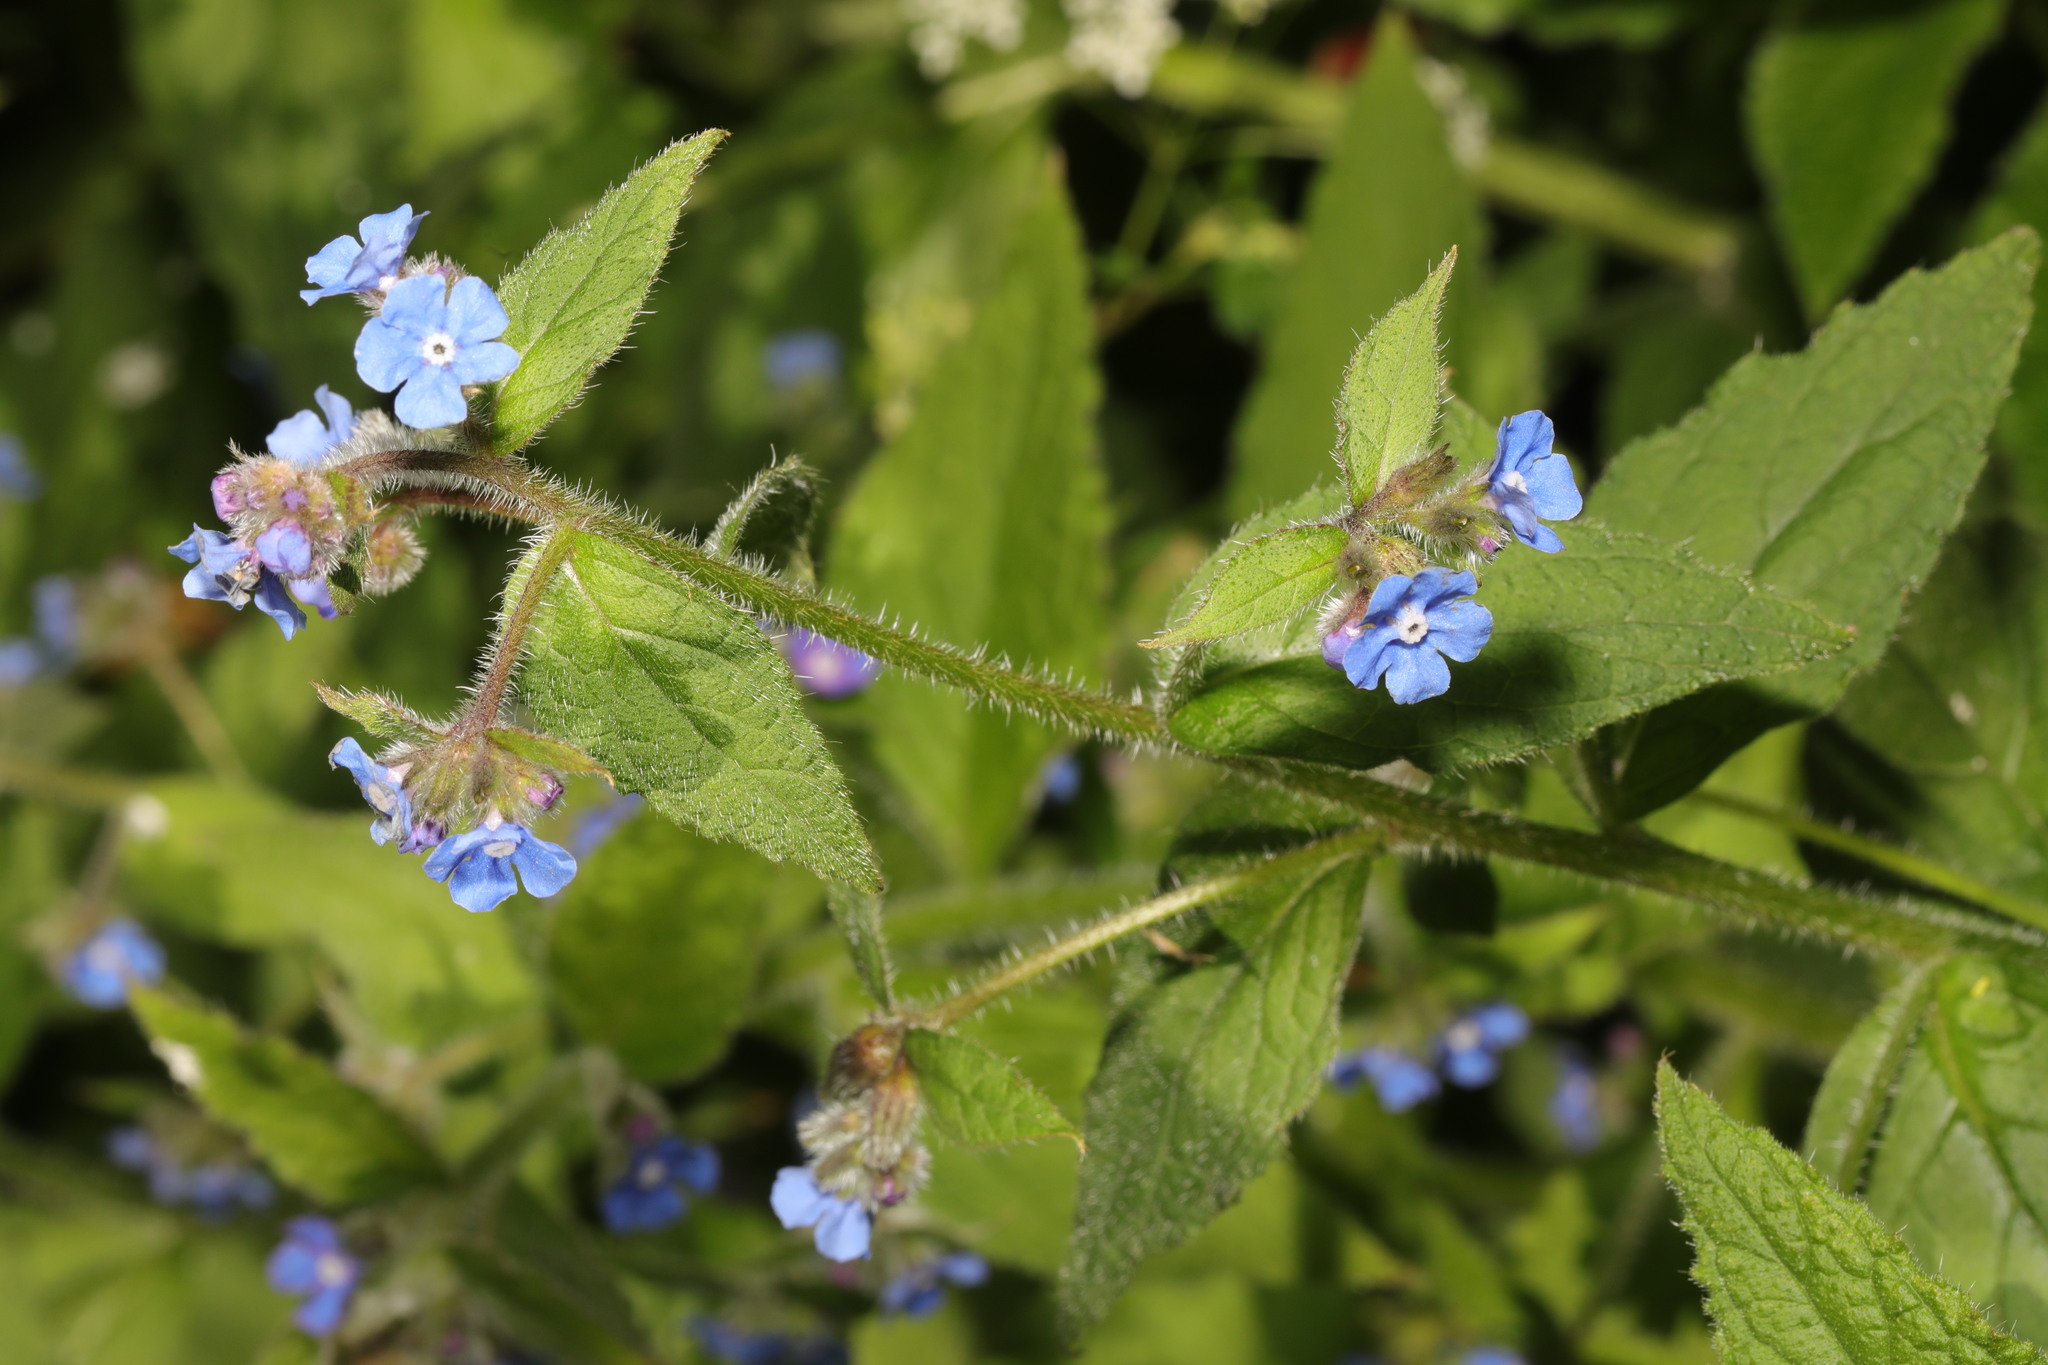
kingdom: Plantae
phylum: Tracheophyta
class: Magnoliopsida
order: Boraginales
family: Boraginaceae
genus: Pentaglottis
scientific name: Pentaglottis sempervirens
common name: Green alkanet
